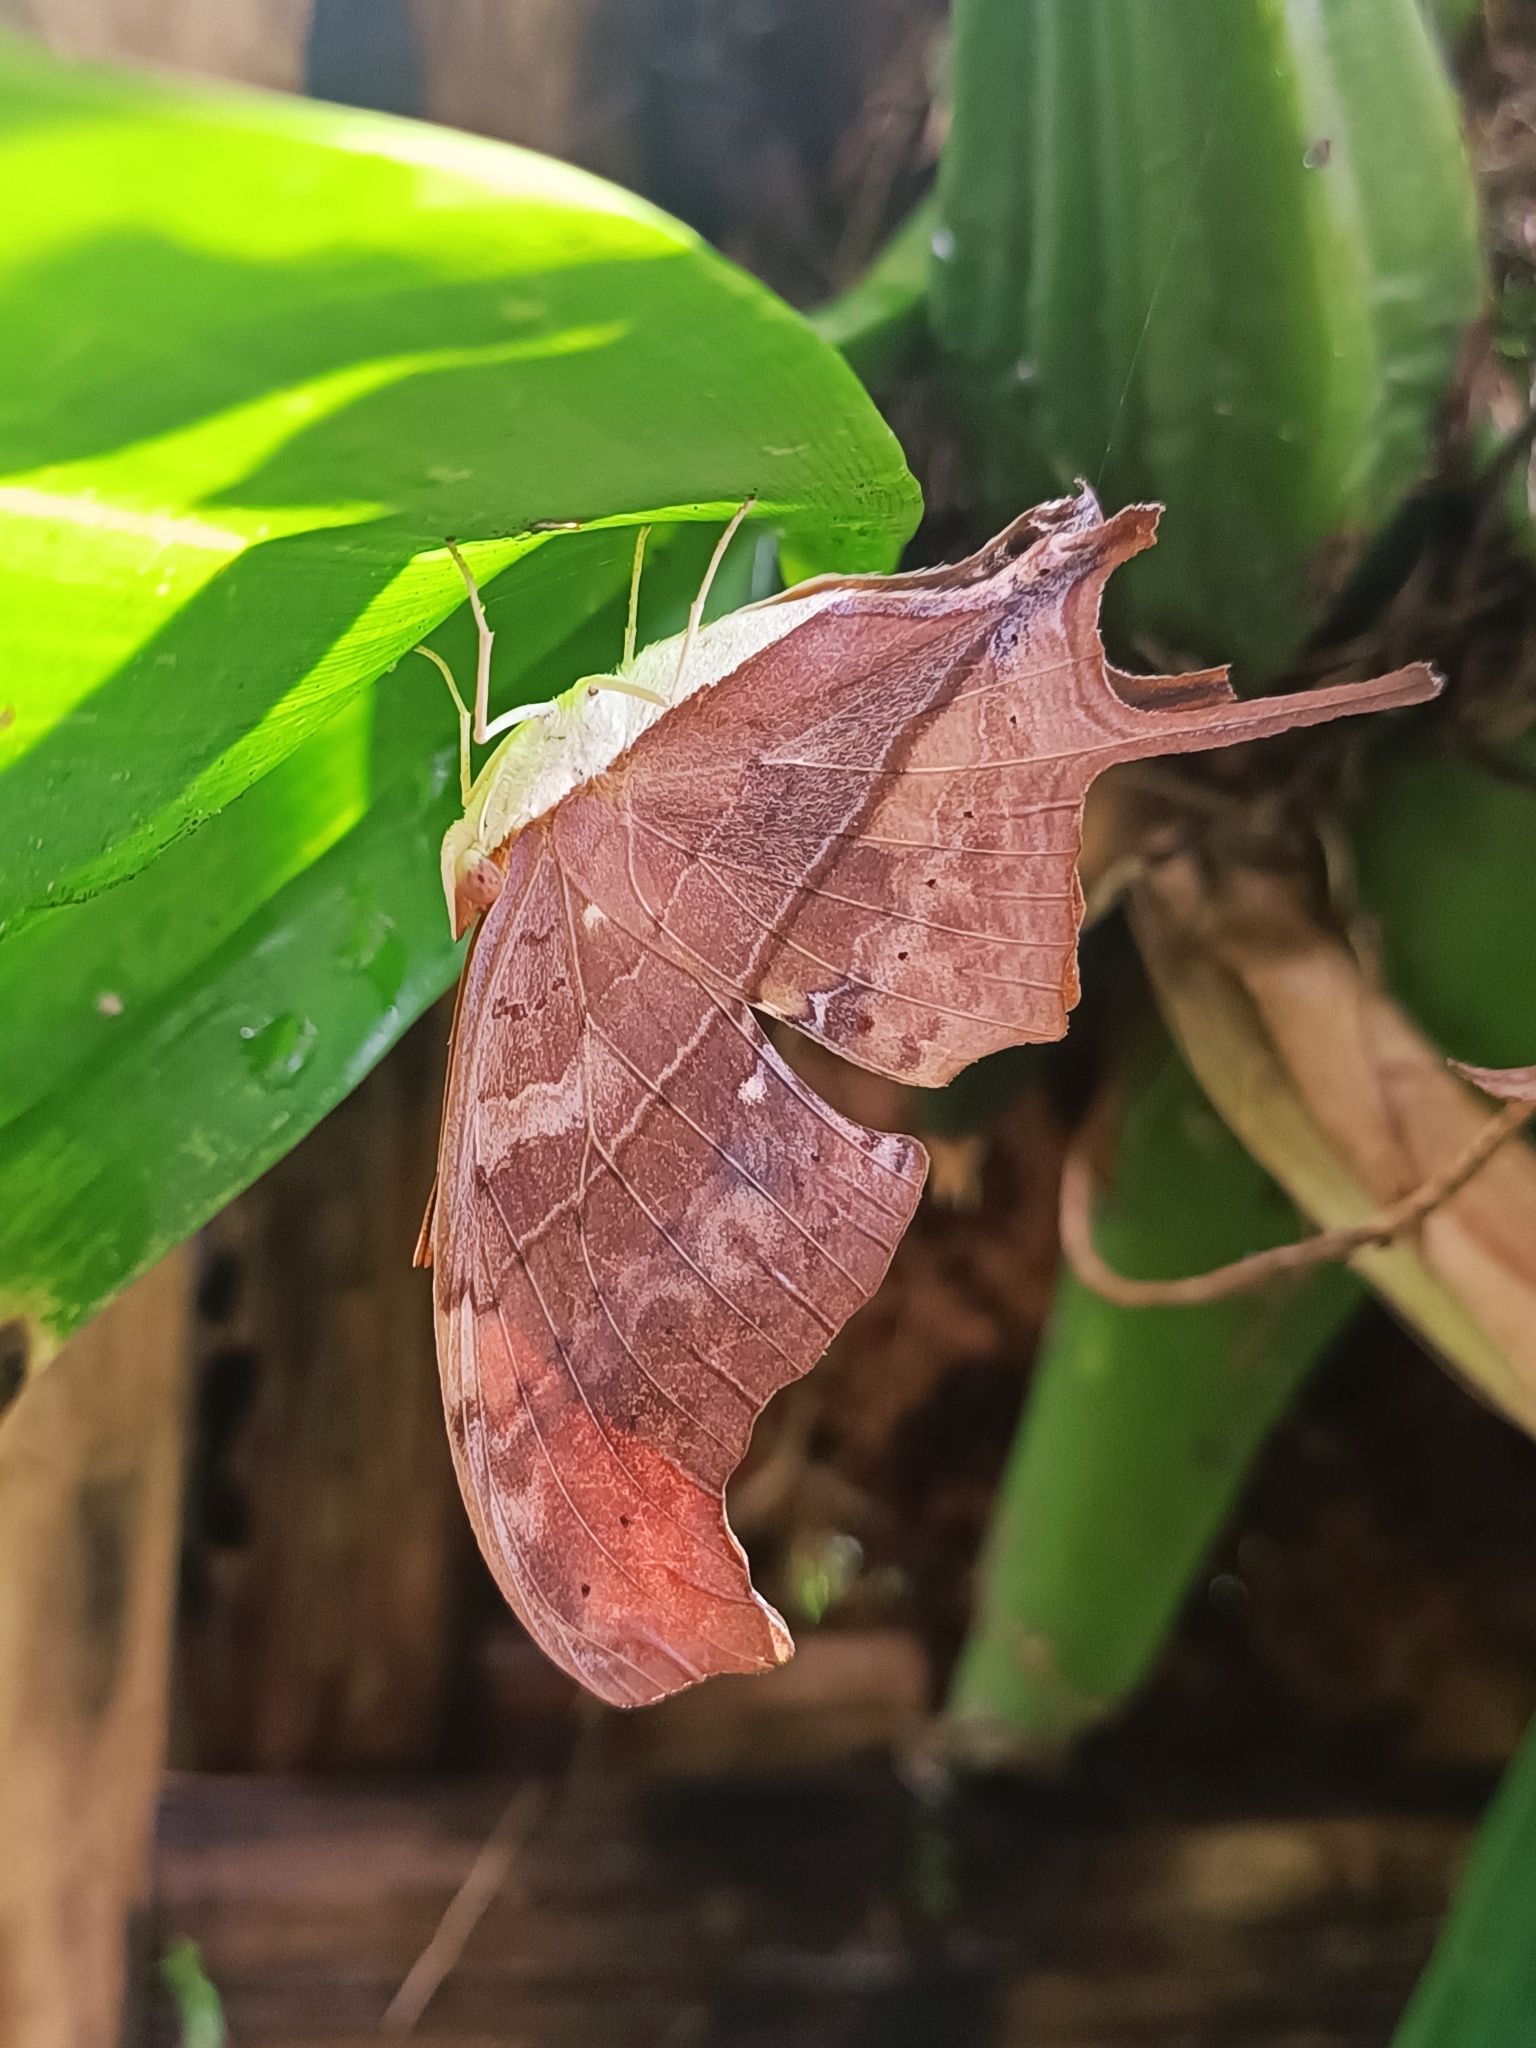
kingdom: Animalia
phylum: Arthropoda
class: Insecta
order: Lepidoptera
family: Nymphalidae
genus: Marpesia
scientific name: Marpesia petreus
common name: Red dagger wing
